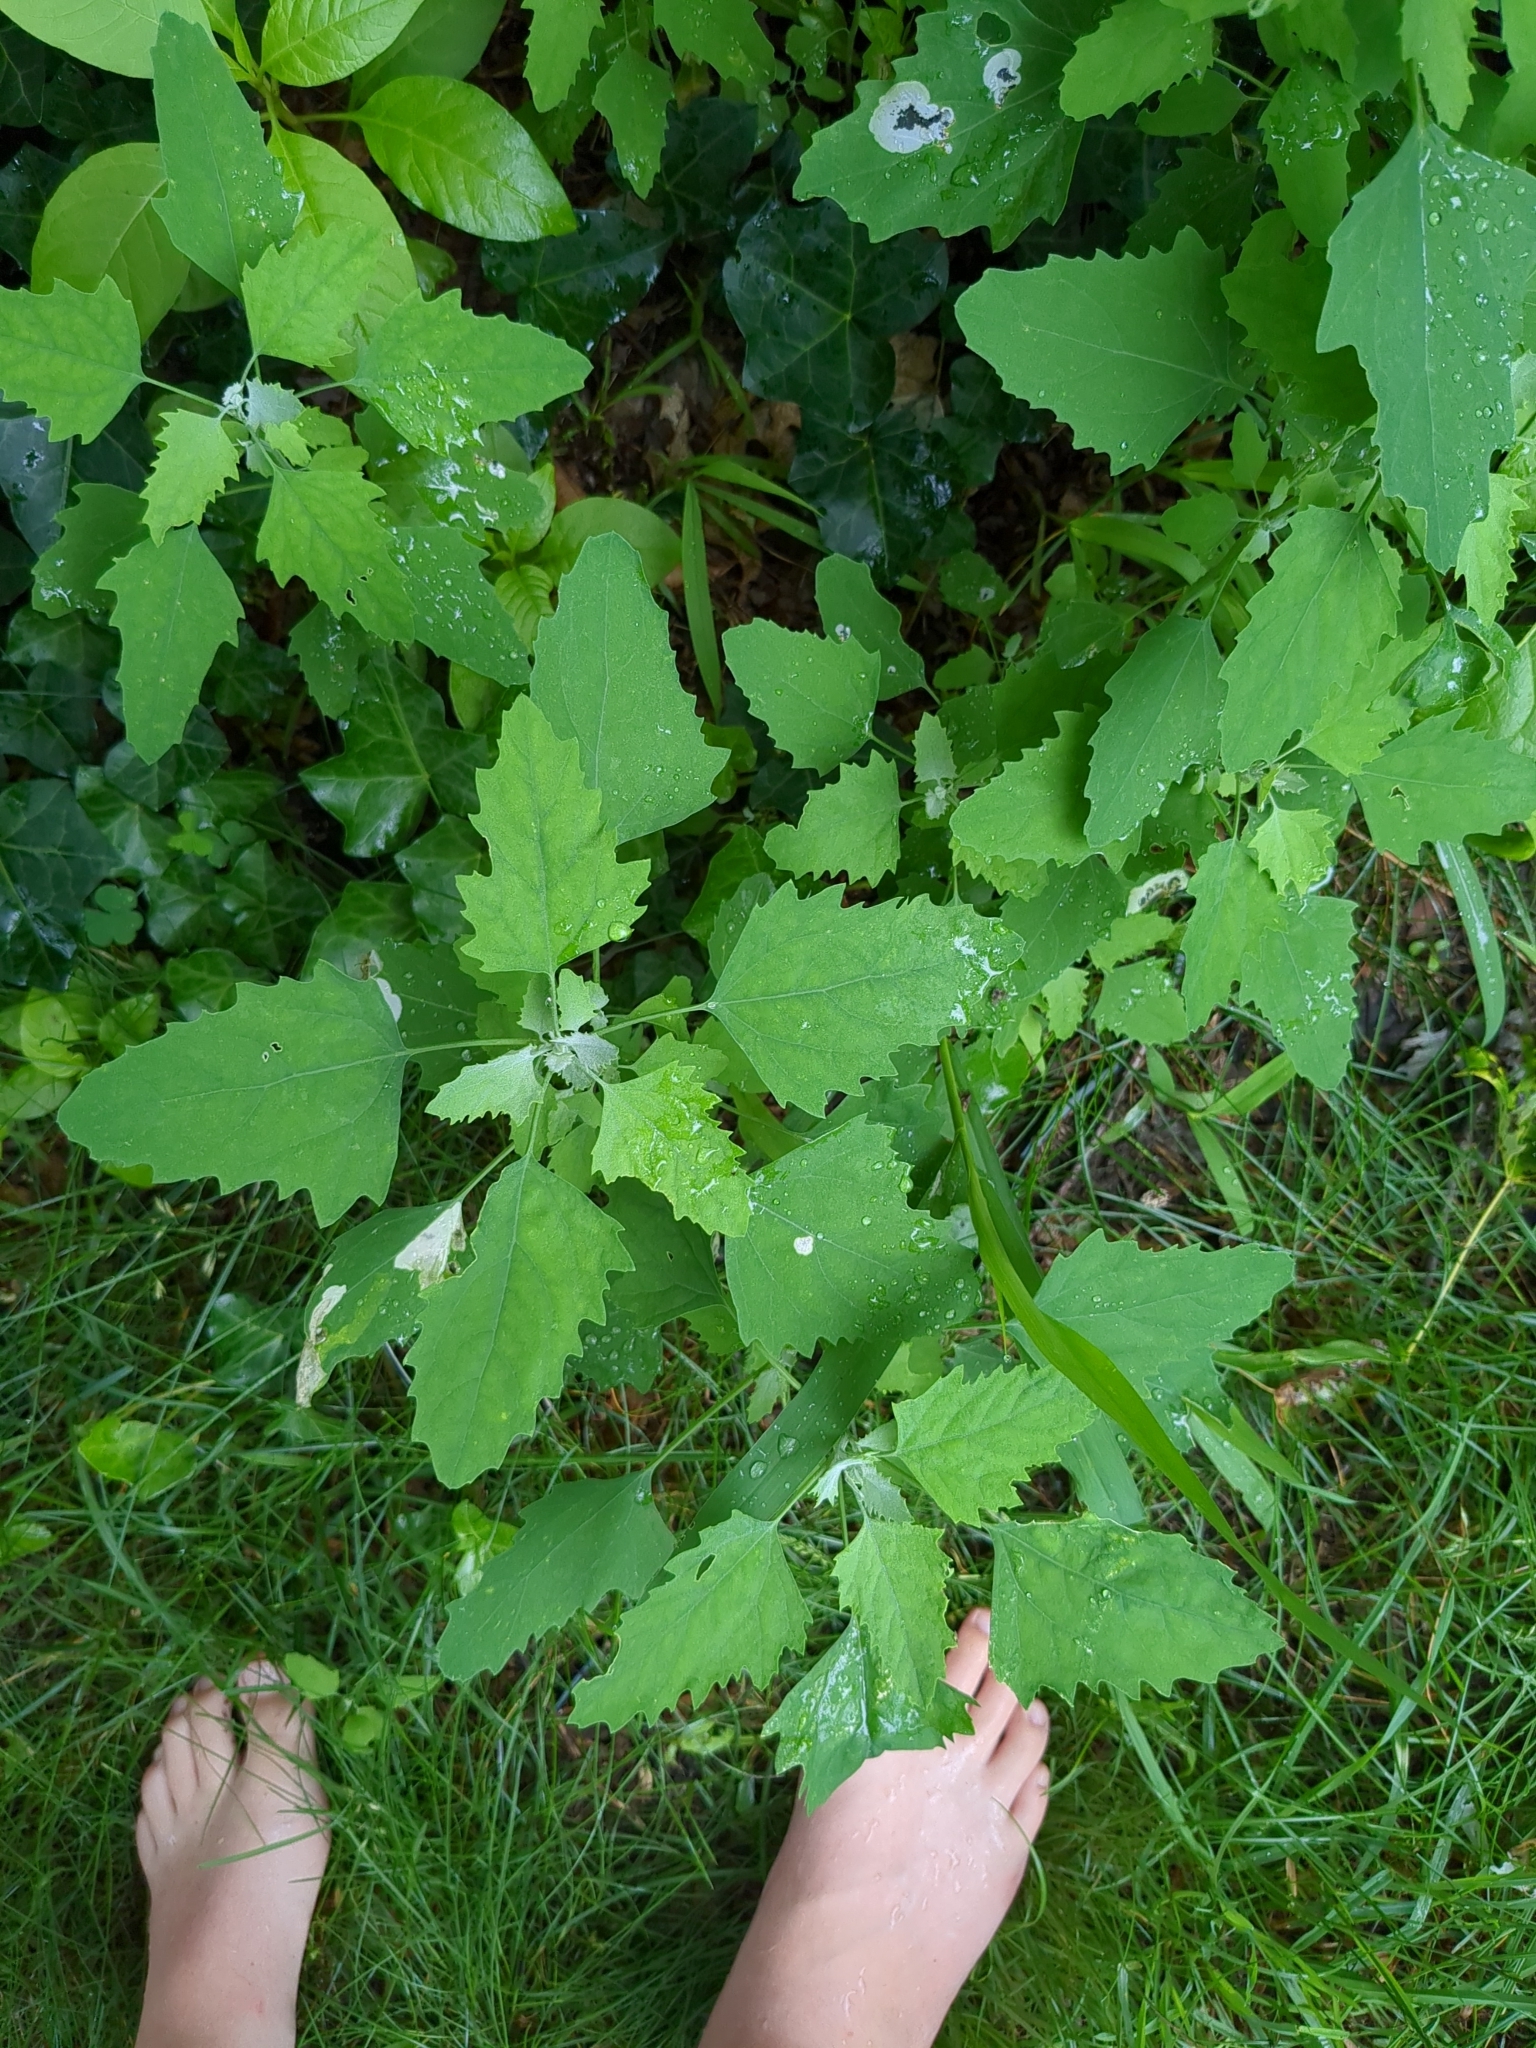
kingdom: Plantae
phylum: Tracheophyta
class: Magnoliopsida
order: Caryophyllales
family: Amaranthaceae
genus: Chenopodium
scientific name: Chenopodium album
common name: Fat-hen
